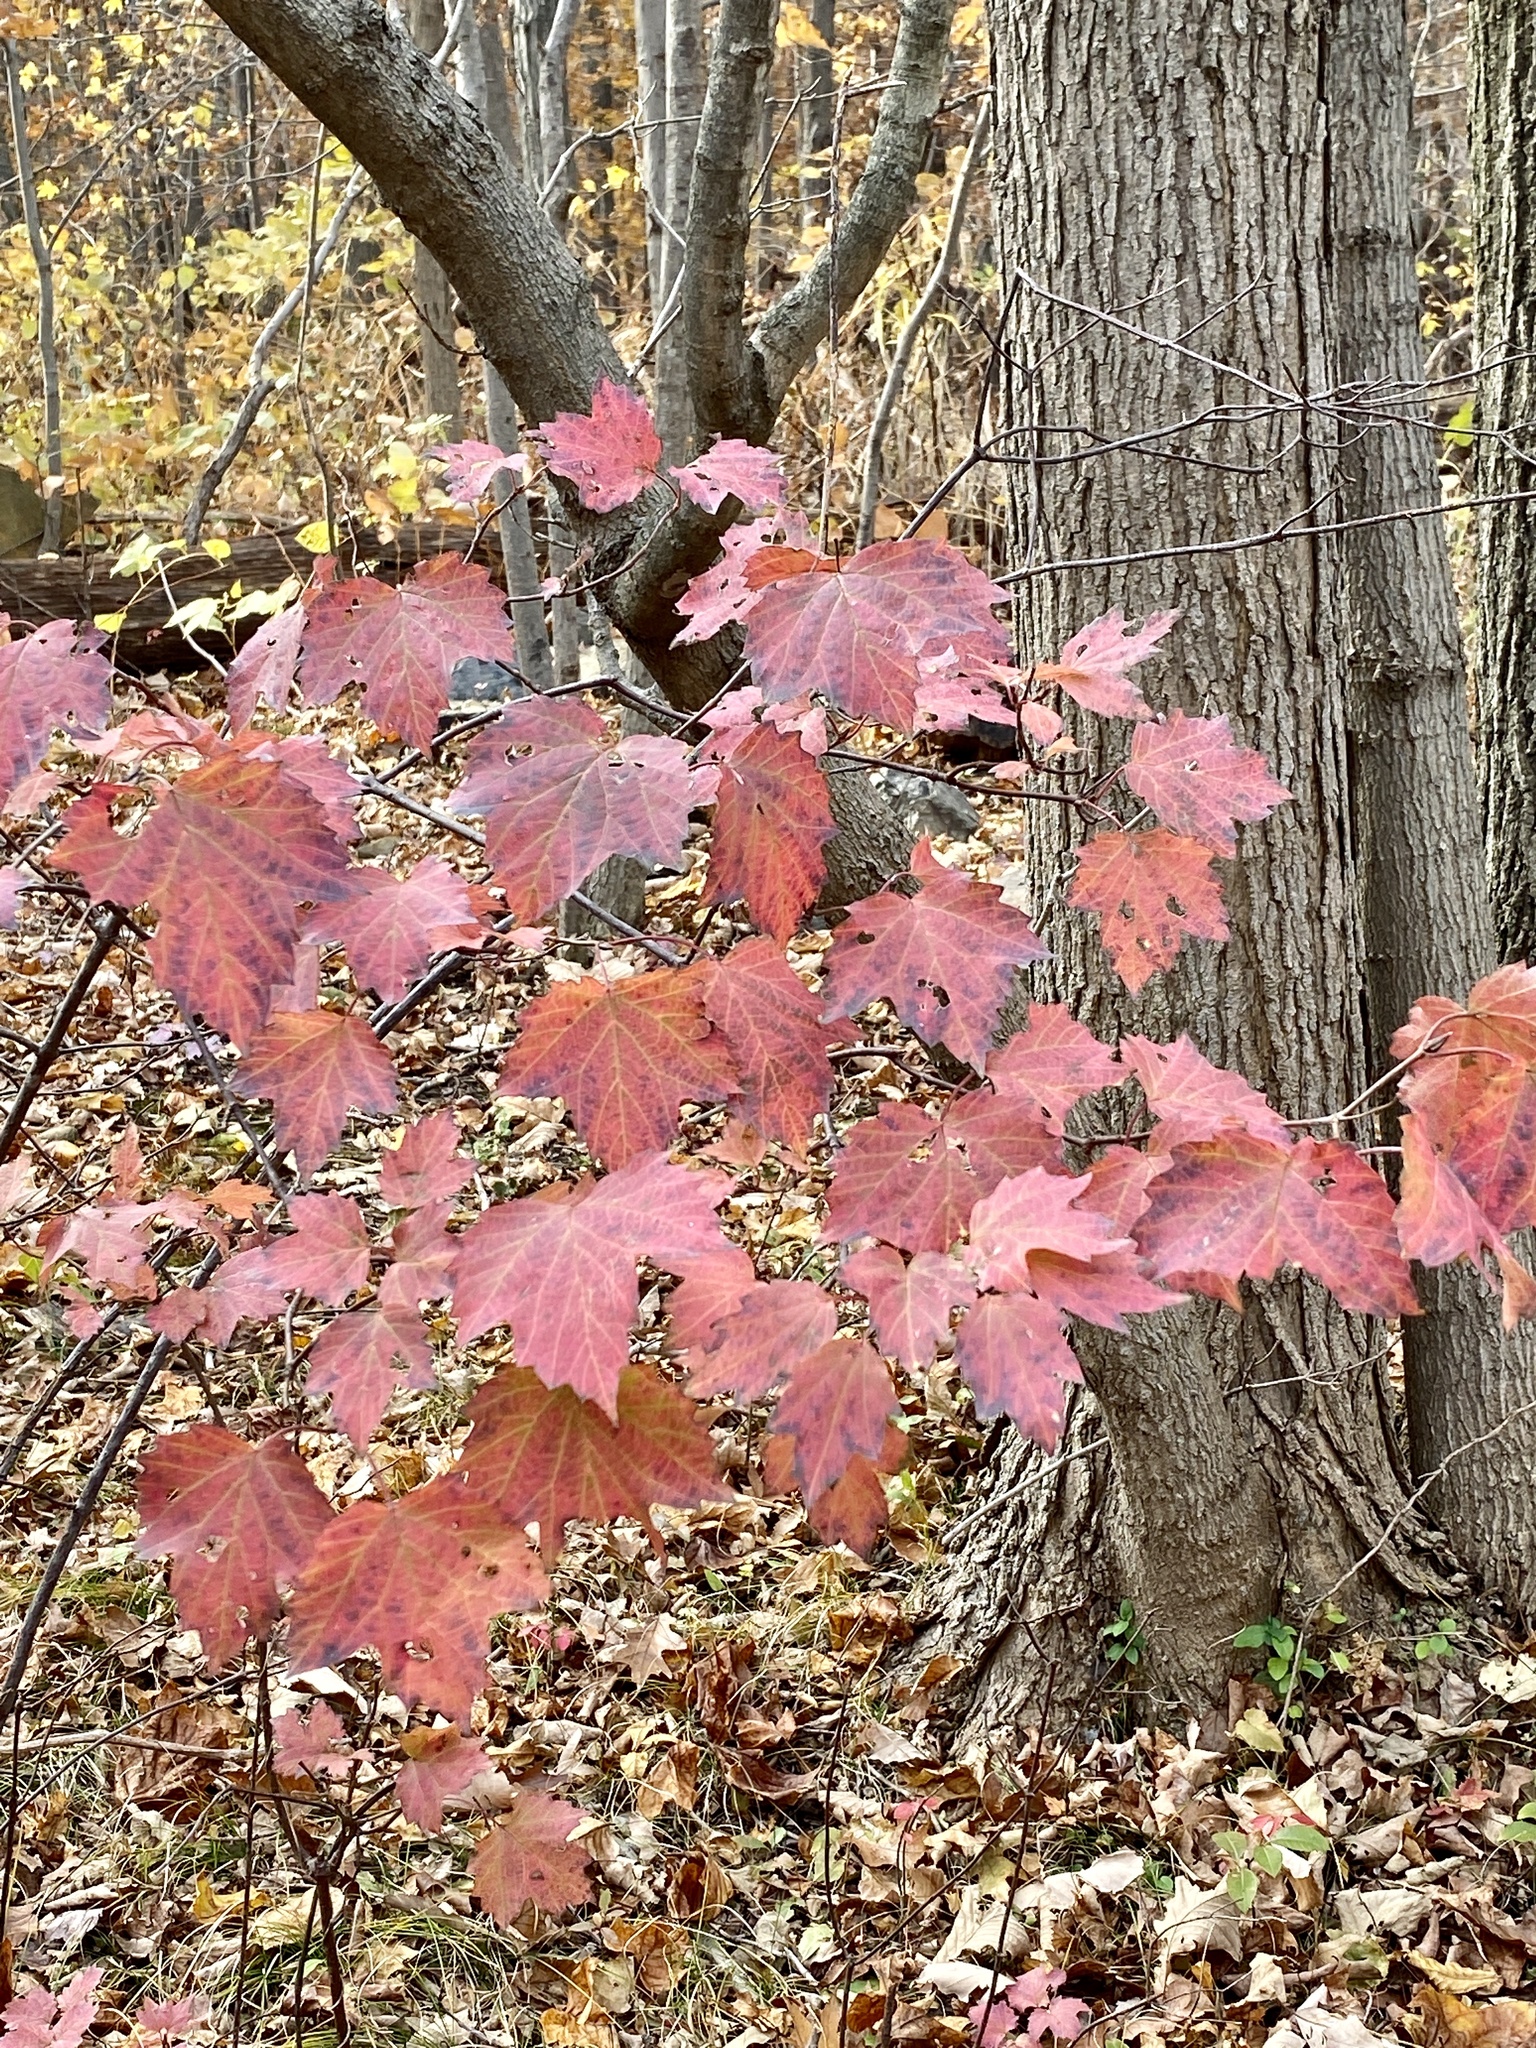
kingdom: Plantae
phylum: Tracheophyta
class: Magnoliopsida
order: Dipsacales
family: Viburnaceae
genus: Viburnum
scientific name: Viburnum acerifolium
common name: Dockmackie
